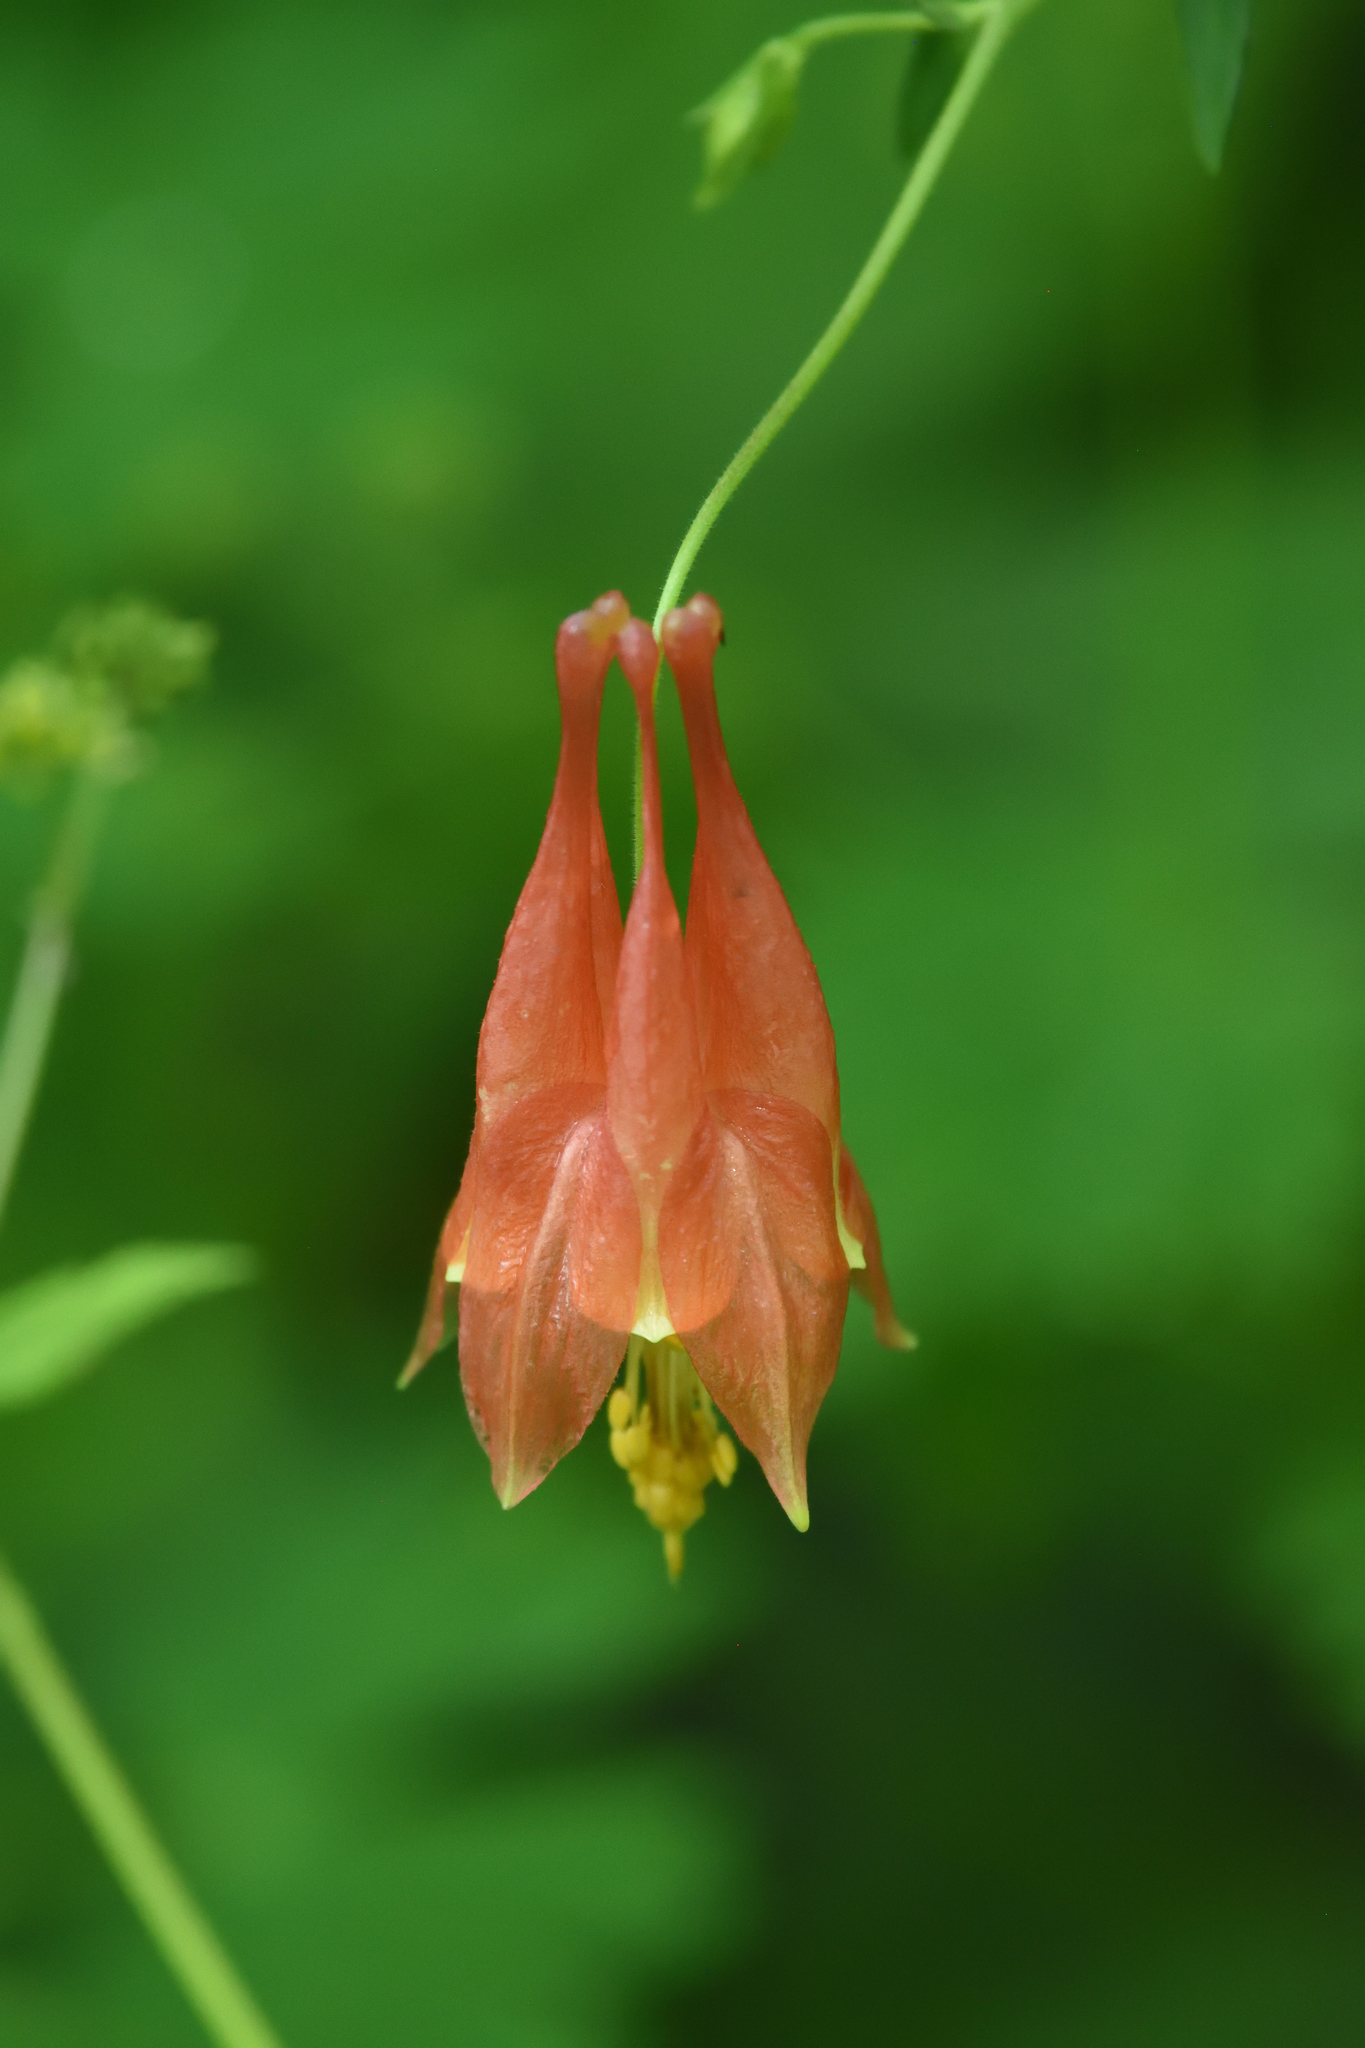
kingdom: Plantae
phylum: Tracheophyta
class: Magnoliopsida
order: Ranunculales
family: Ranunculaceae
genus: Aquilegia
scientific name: Aquilegia canadensis
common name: American columbine
